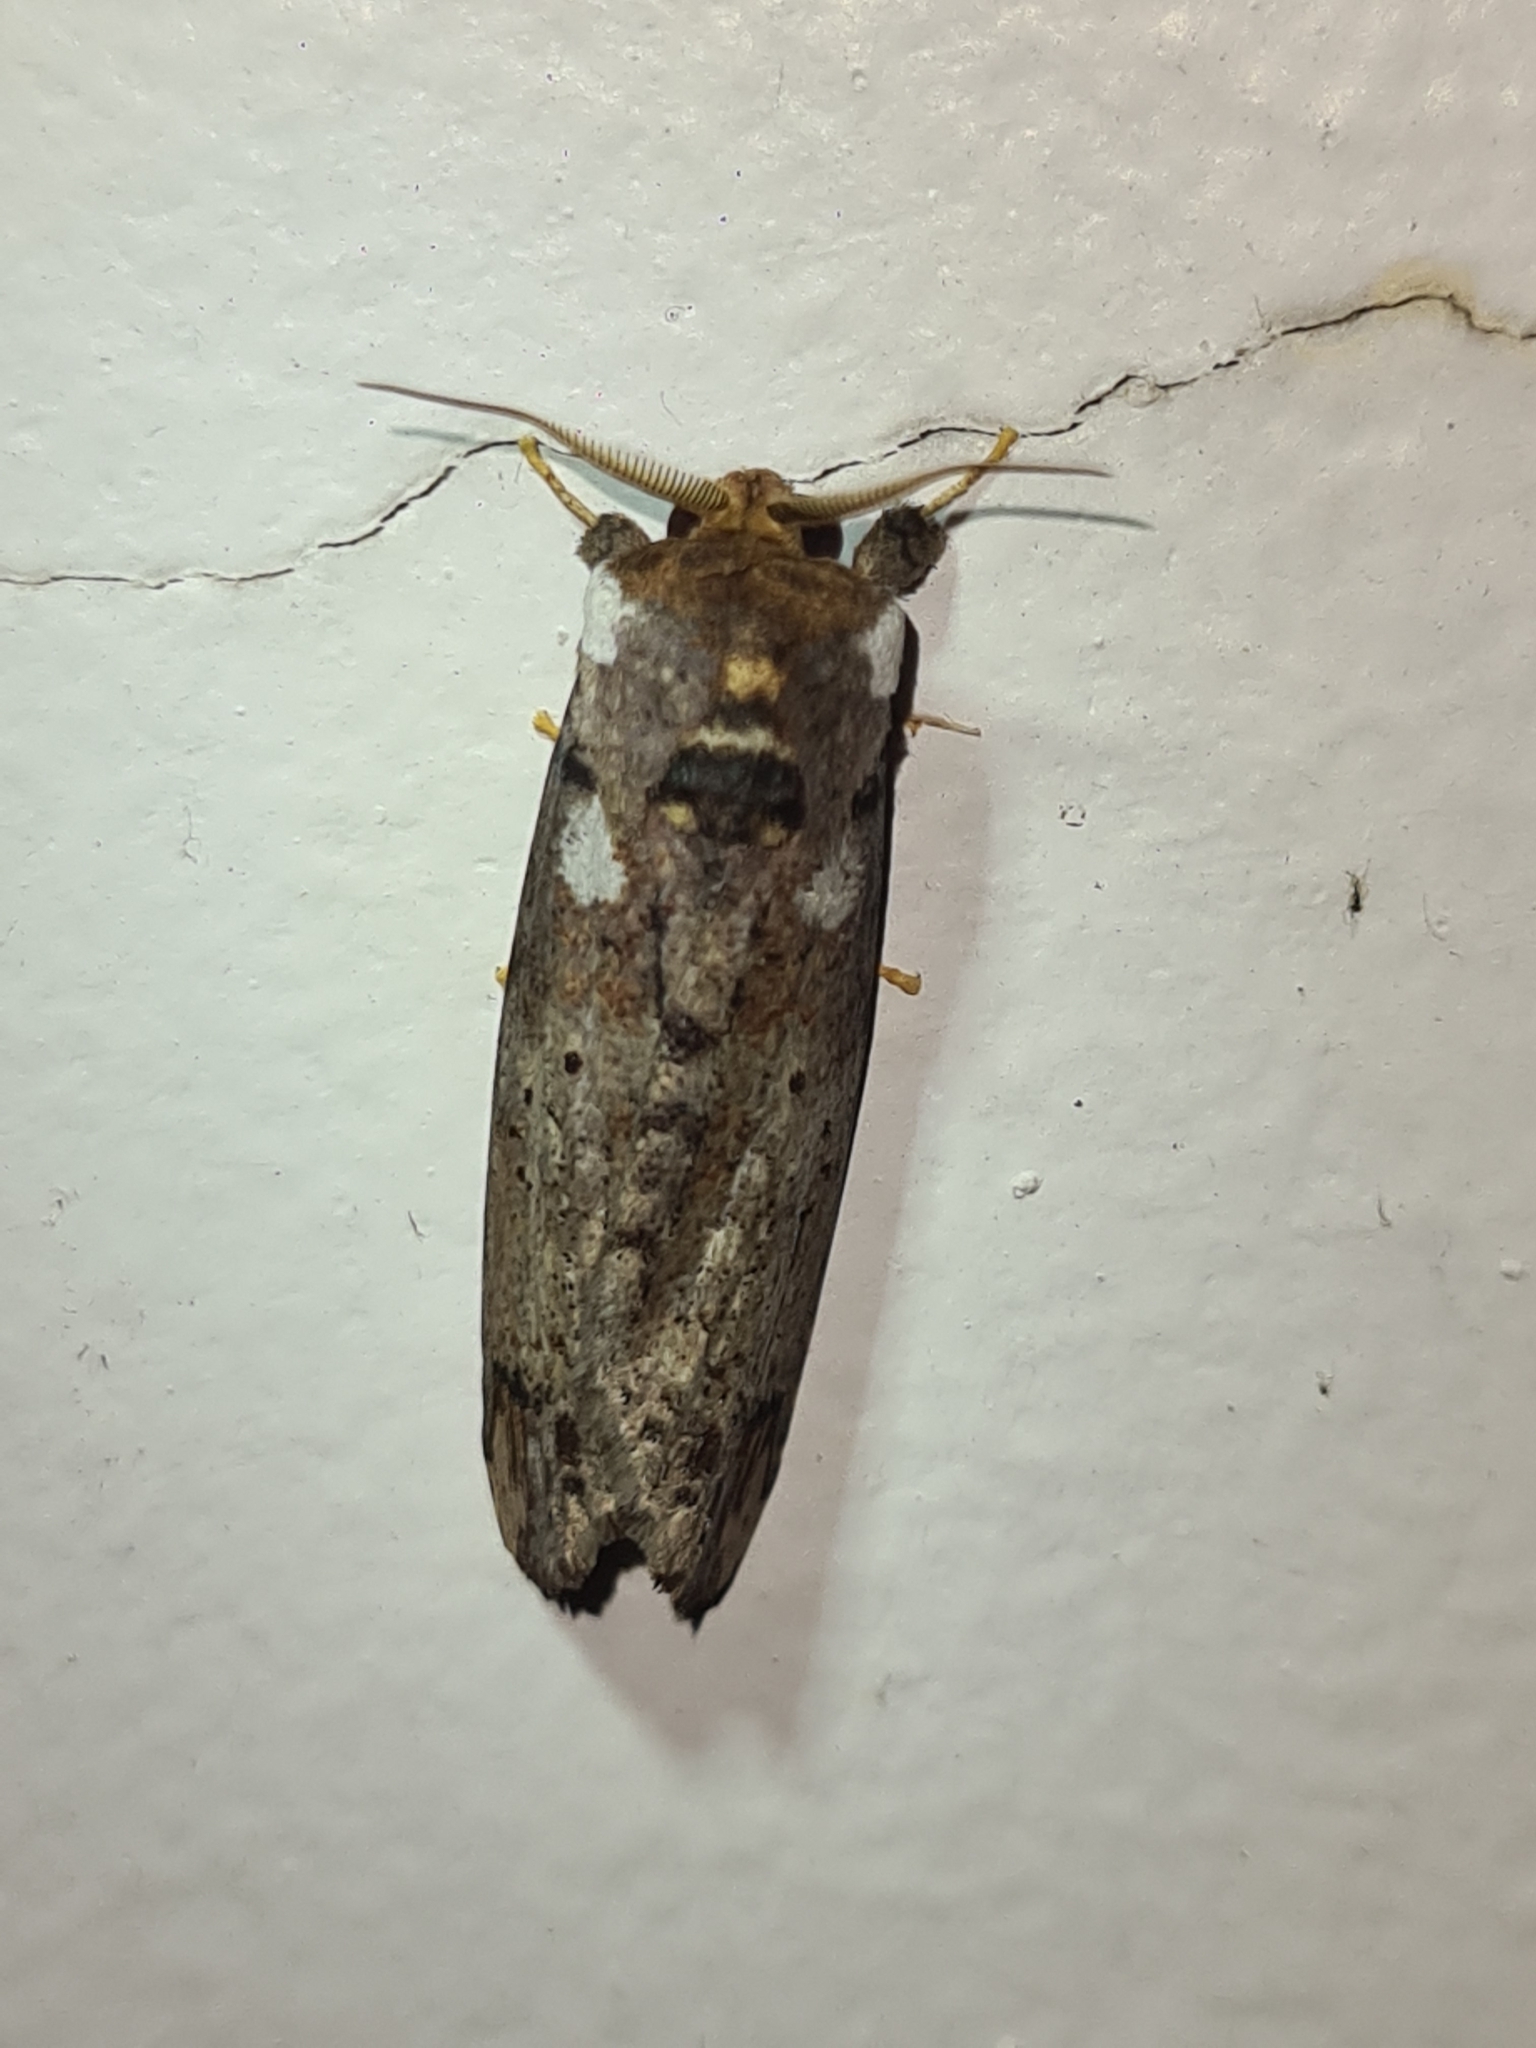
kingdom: Animalia
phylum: Arthropoda
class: Insecta
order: Lepidoptera
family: Notodontidae
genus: Navarcostes
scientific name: Navarcostes limnatis
